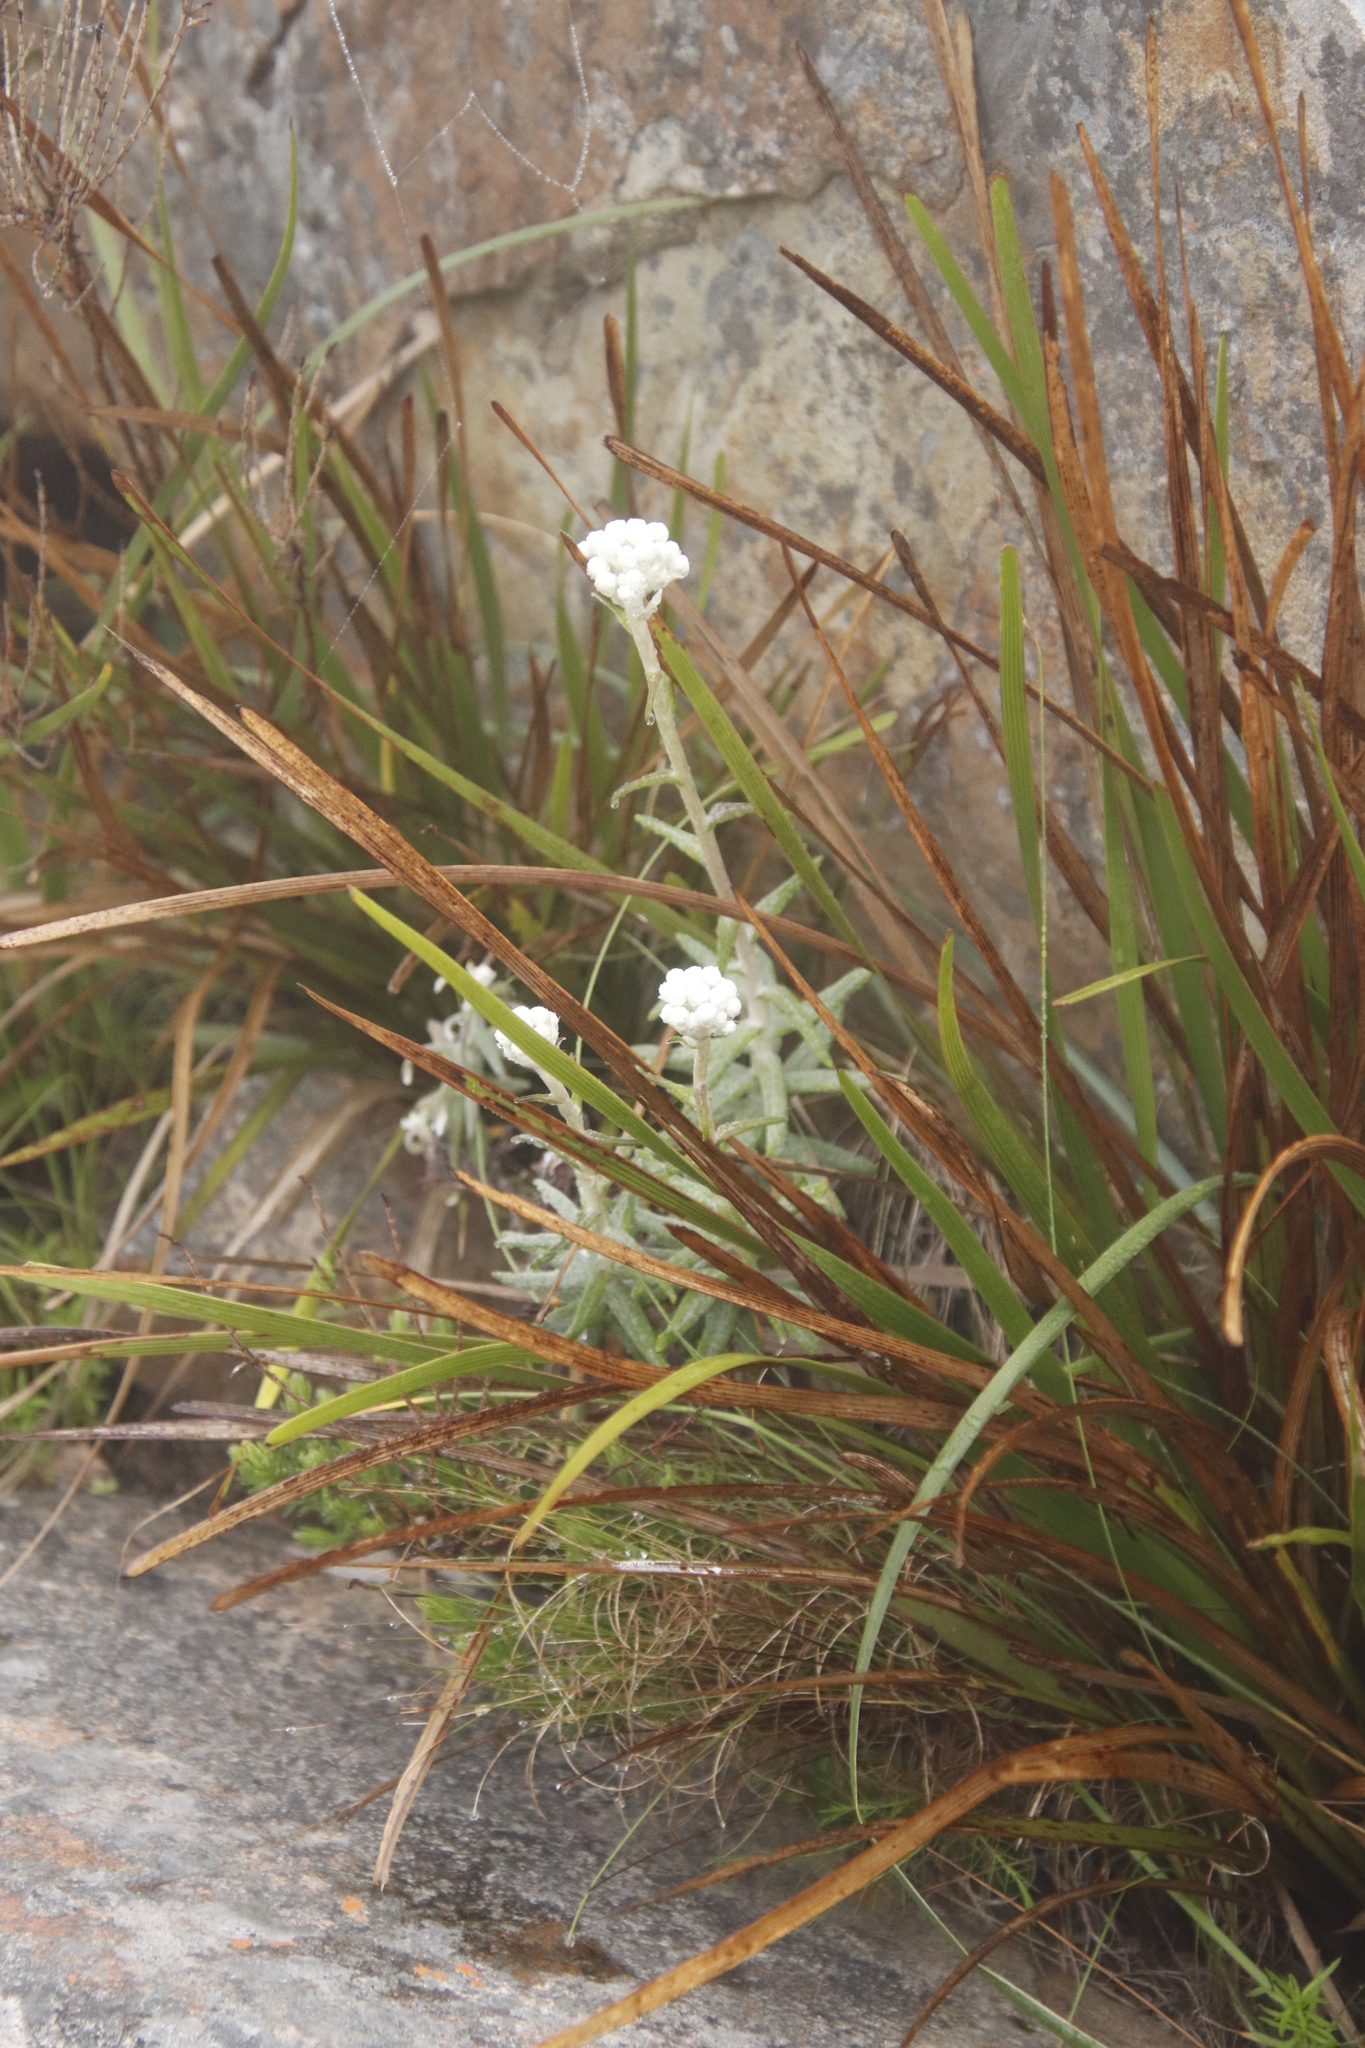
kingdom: Plantae
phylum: Tracheophyta
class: Magnoliopsida
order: Asterales
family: Asteraceae
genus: Helichrysum
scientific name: Helichrysum felinum
